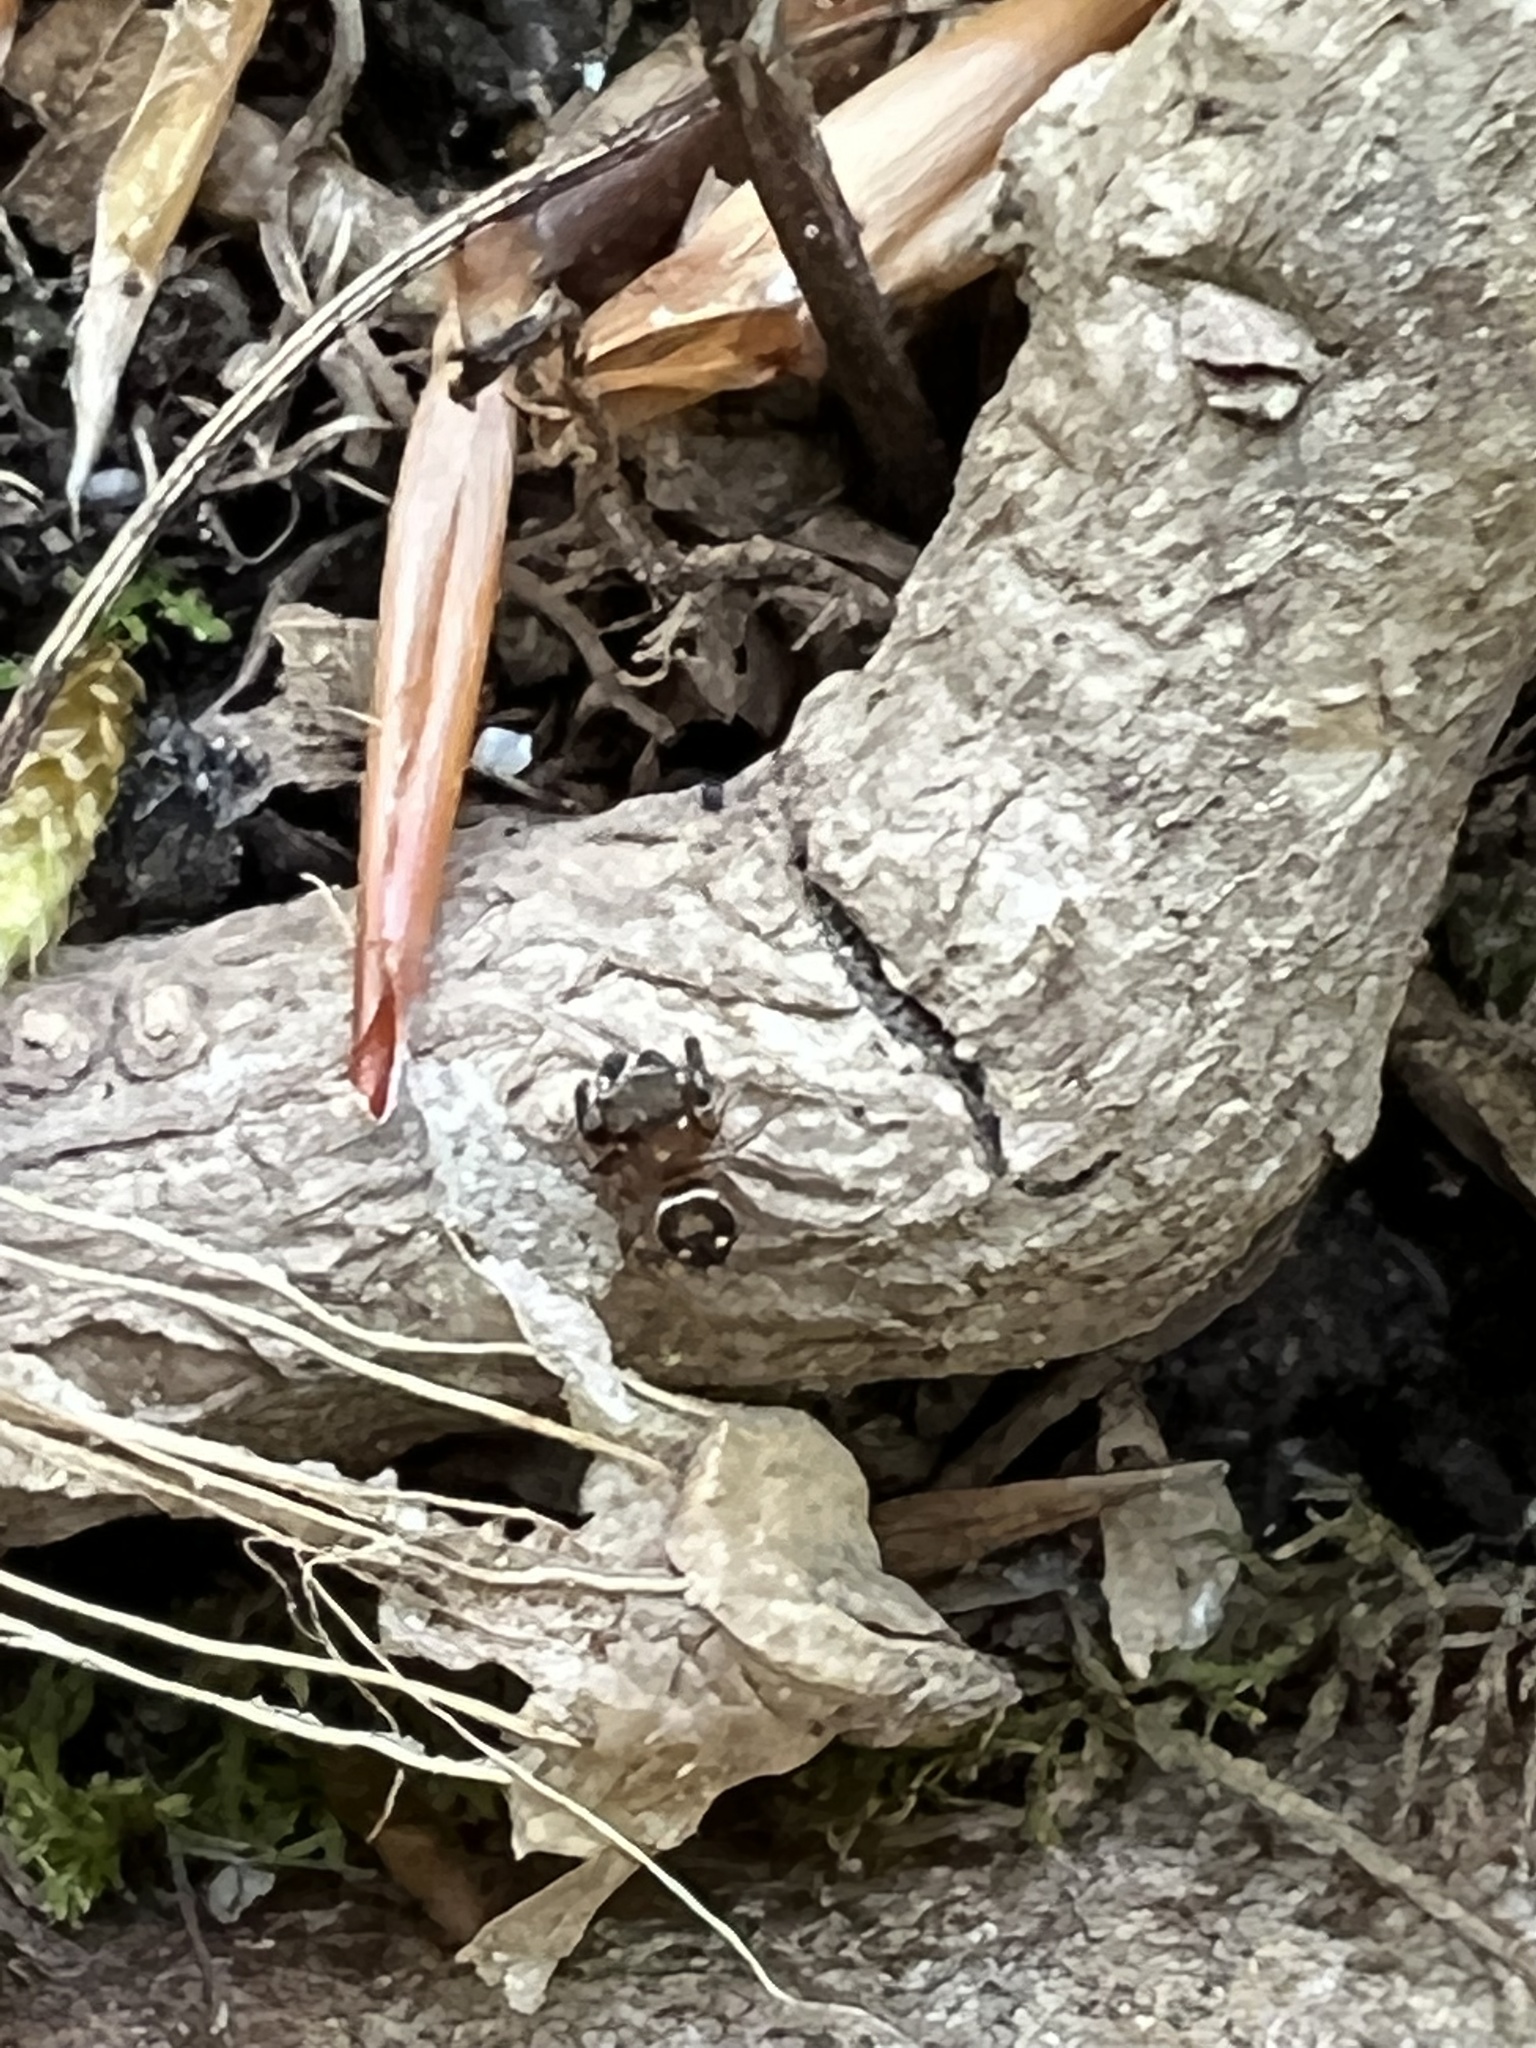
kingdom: Animalia
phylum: Arthropoda
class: Arachnida
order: Araneae
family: Salticidae
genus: Chinattus
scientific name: Chinattus parvulus
